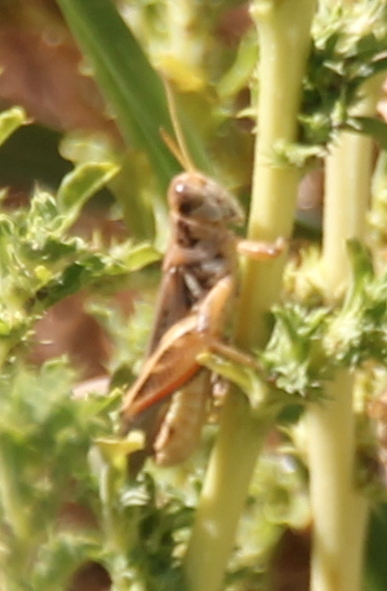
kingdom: Animalia
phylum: Arthropoda
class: Insecta
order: Orthoptera
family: Acrididae
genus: Melanoplus
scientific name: Melanoplus devastator
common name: Devastating grasshopper
